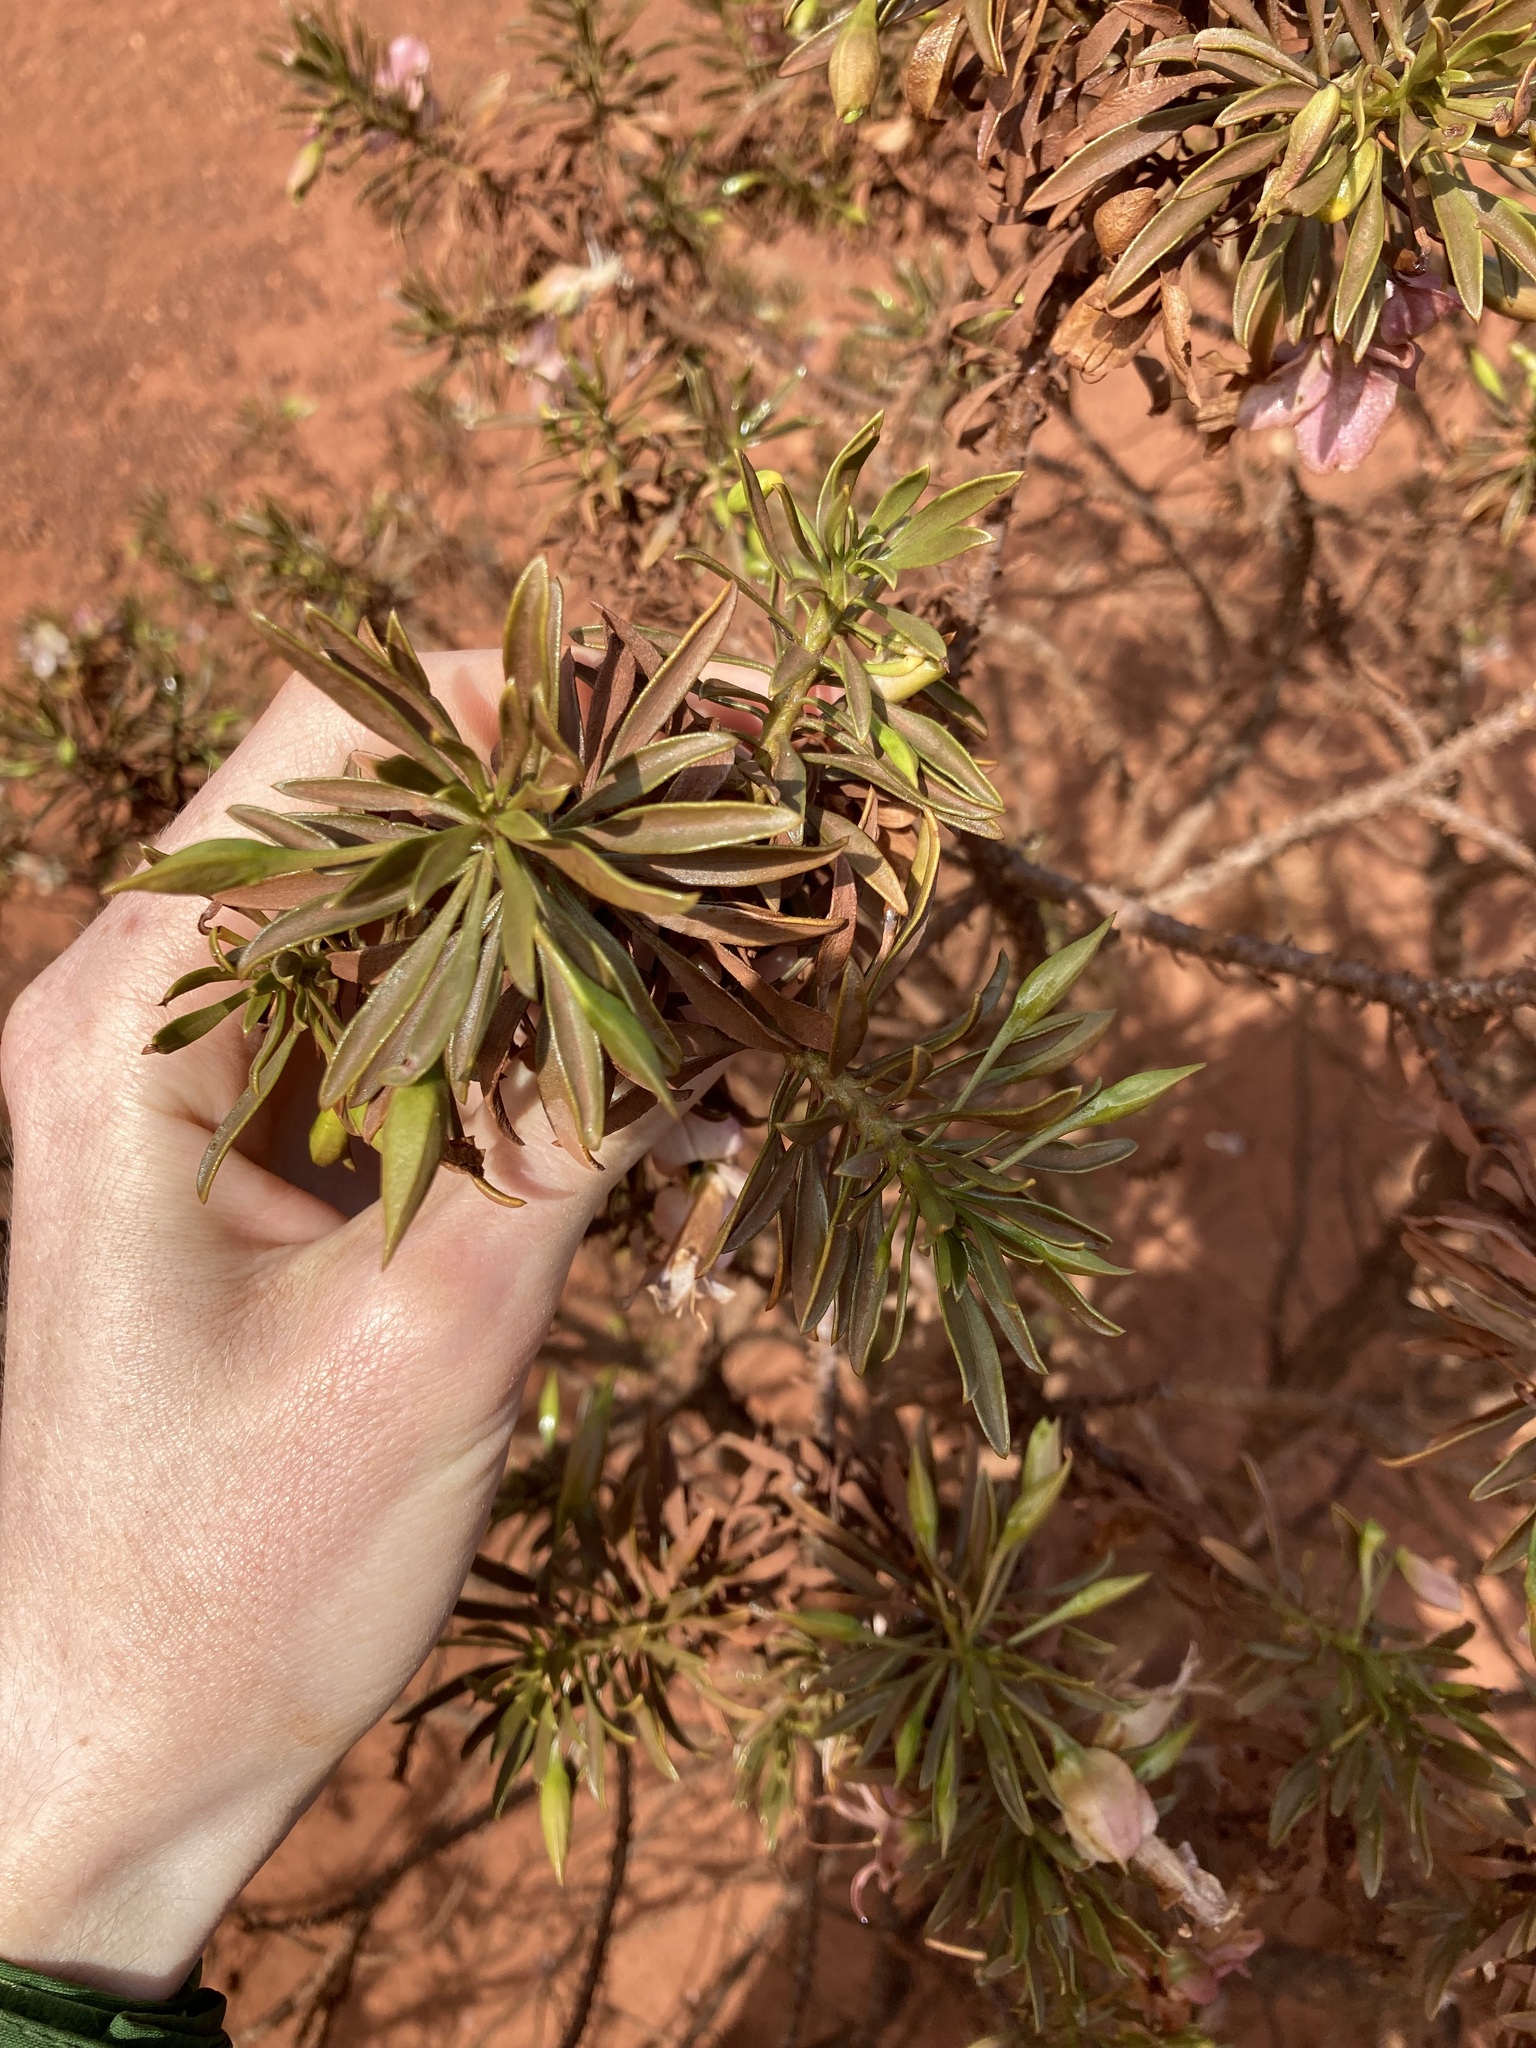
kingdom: Plantae
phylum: Tracheophyta
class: Magnoliopsida
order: Lamiales
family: Scrophulariaceae
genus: Eremophila
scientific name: Eremophila abietina
